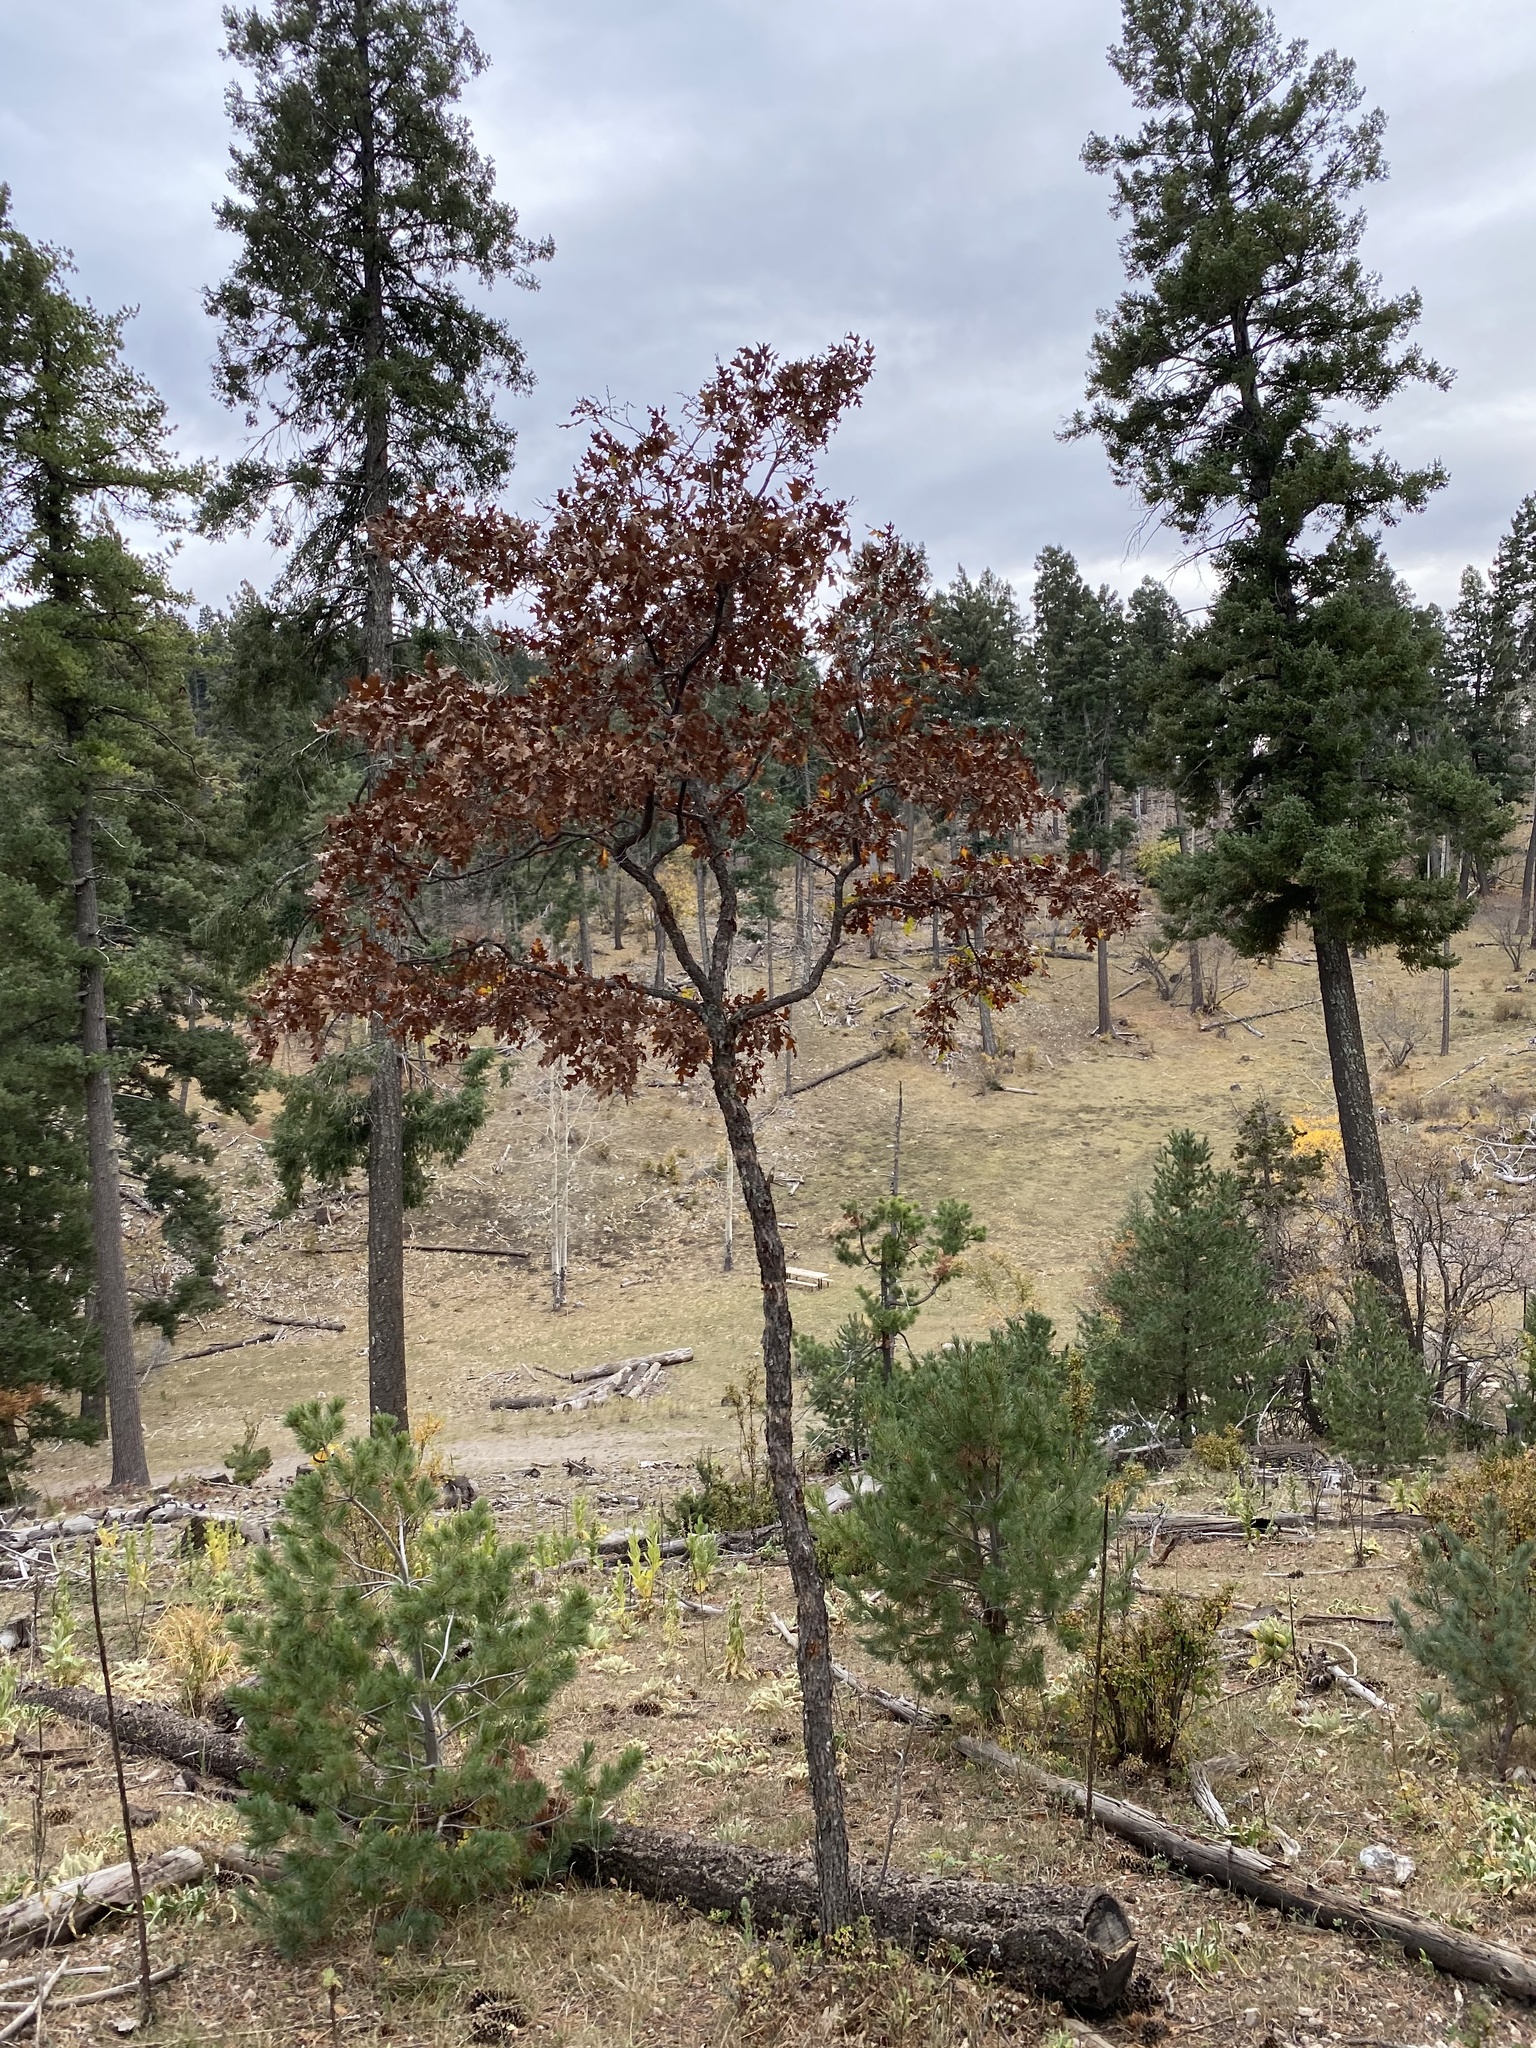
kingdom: Plantae
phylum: Tracheophyta
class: Magnoliopsida
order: Fagales
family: Fagaceae
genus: Quercus
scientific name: Quercus gambelii
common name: Gambel oak
